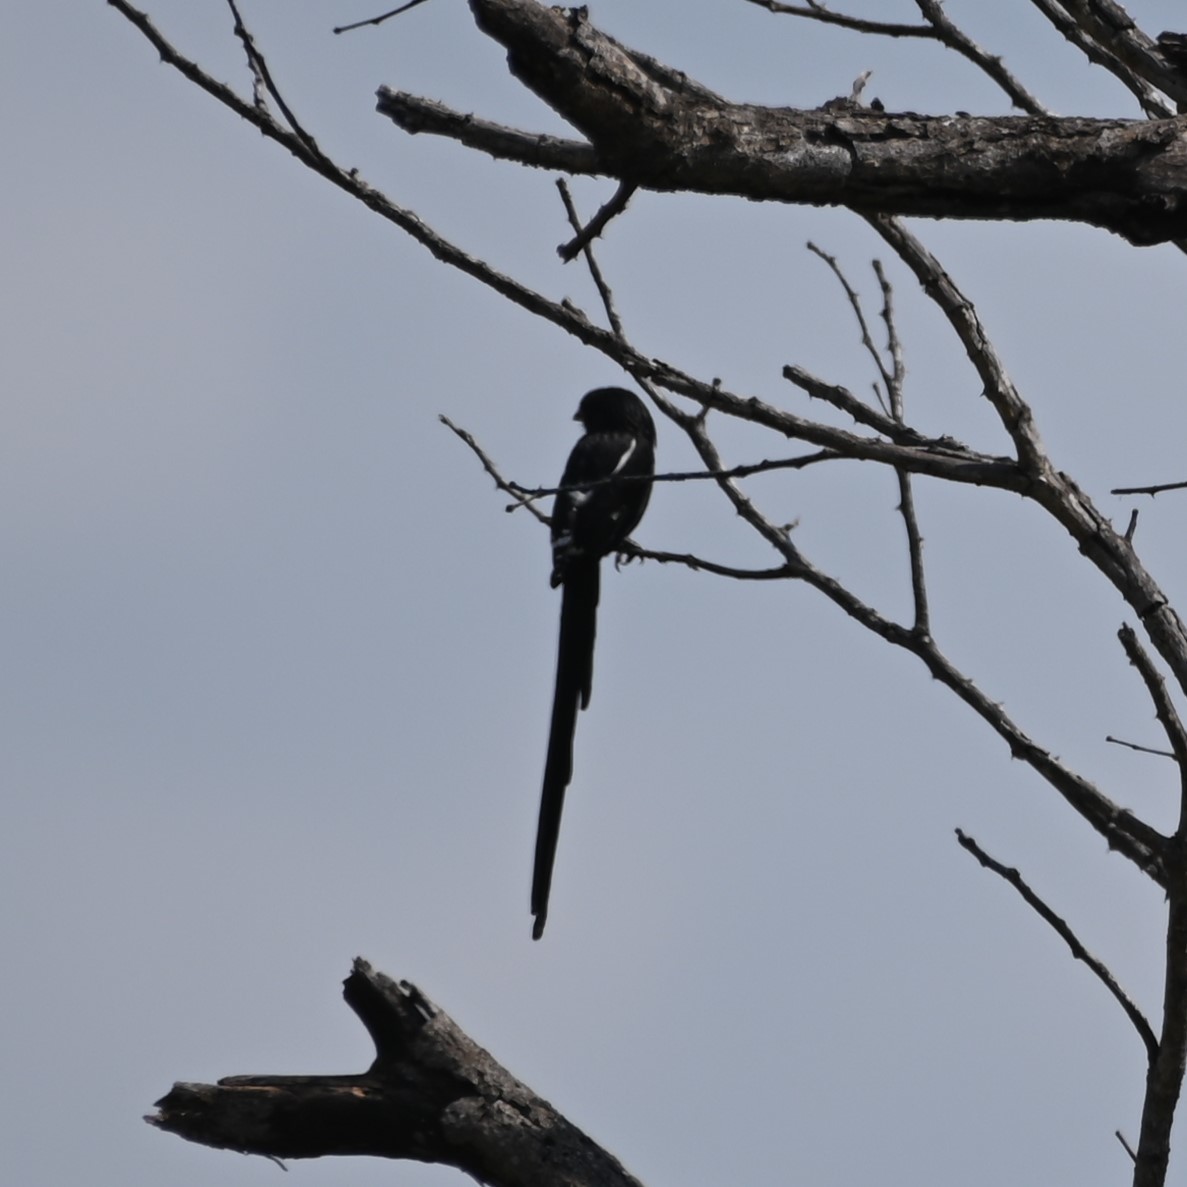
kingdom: Animalia
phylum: Chordata
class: Aves
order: Passeriformes
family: Laniidae
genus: Urolestes
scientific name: Urolestes melanoleucus
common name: Magpie shrike
